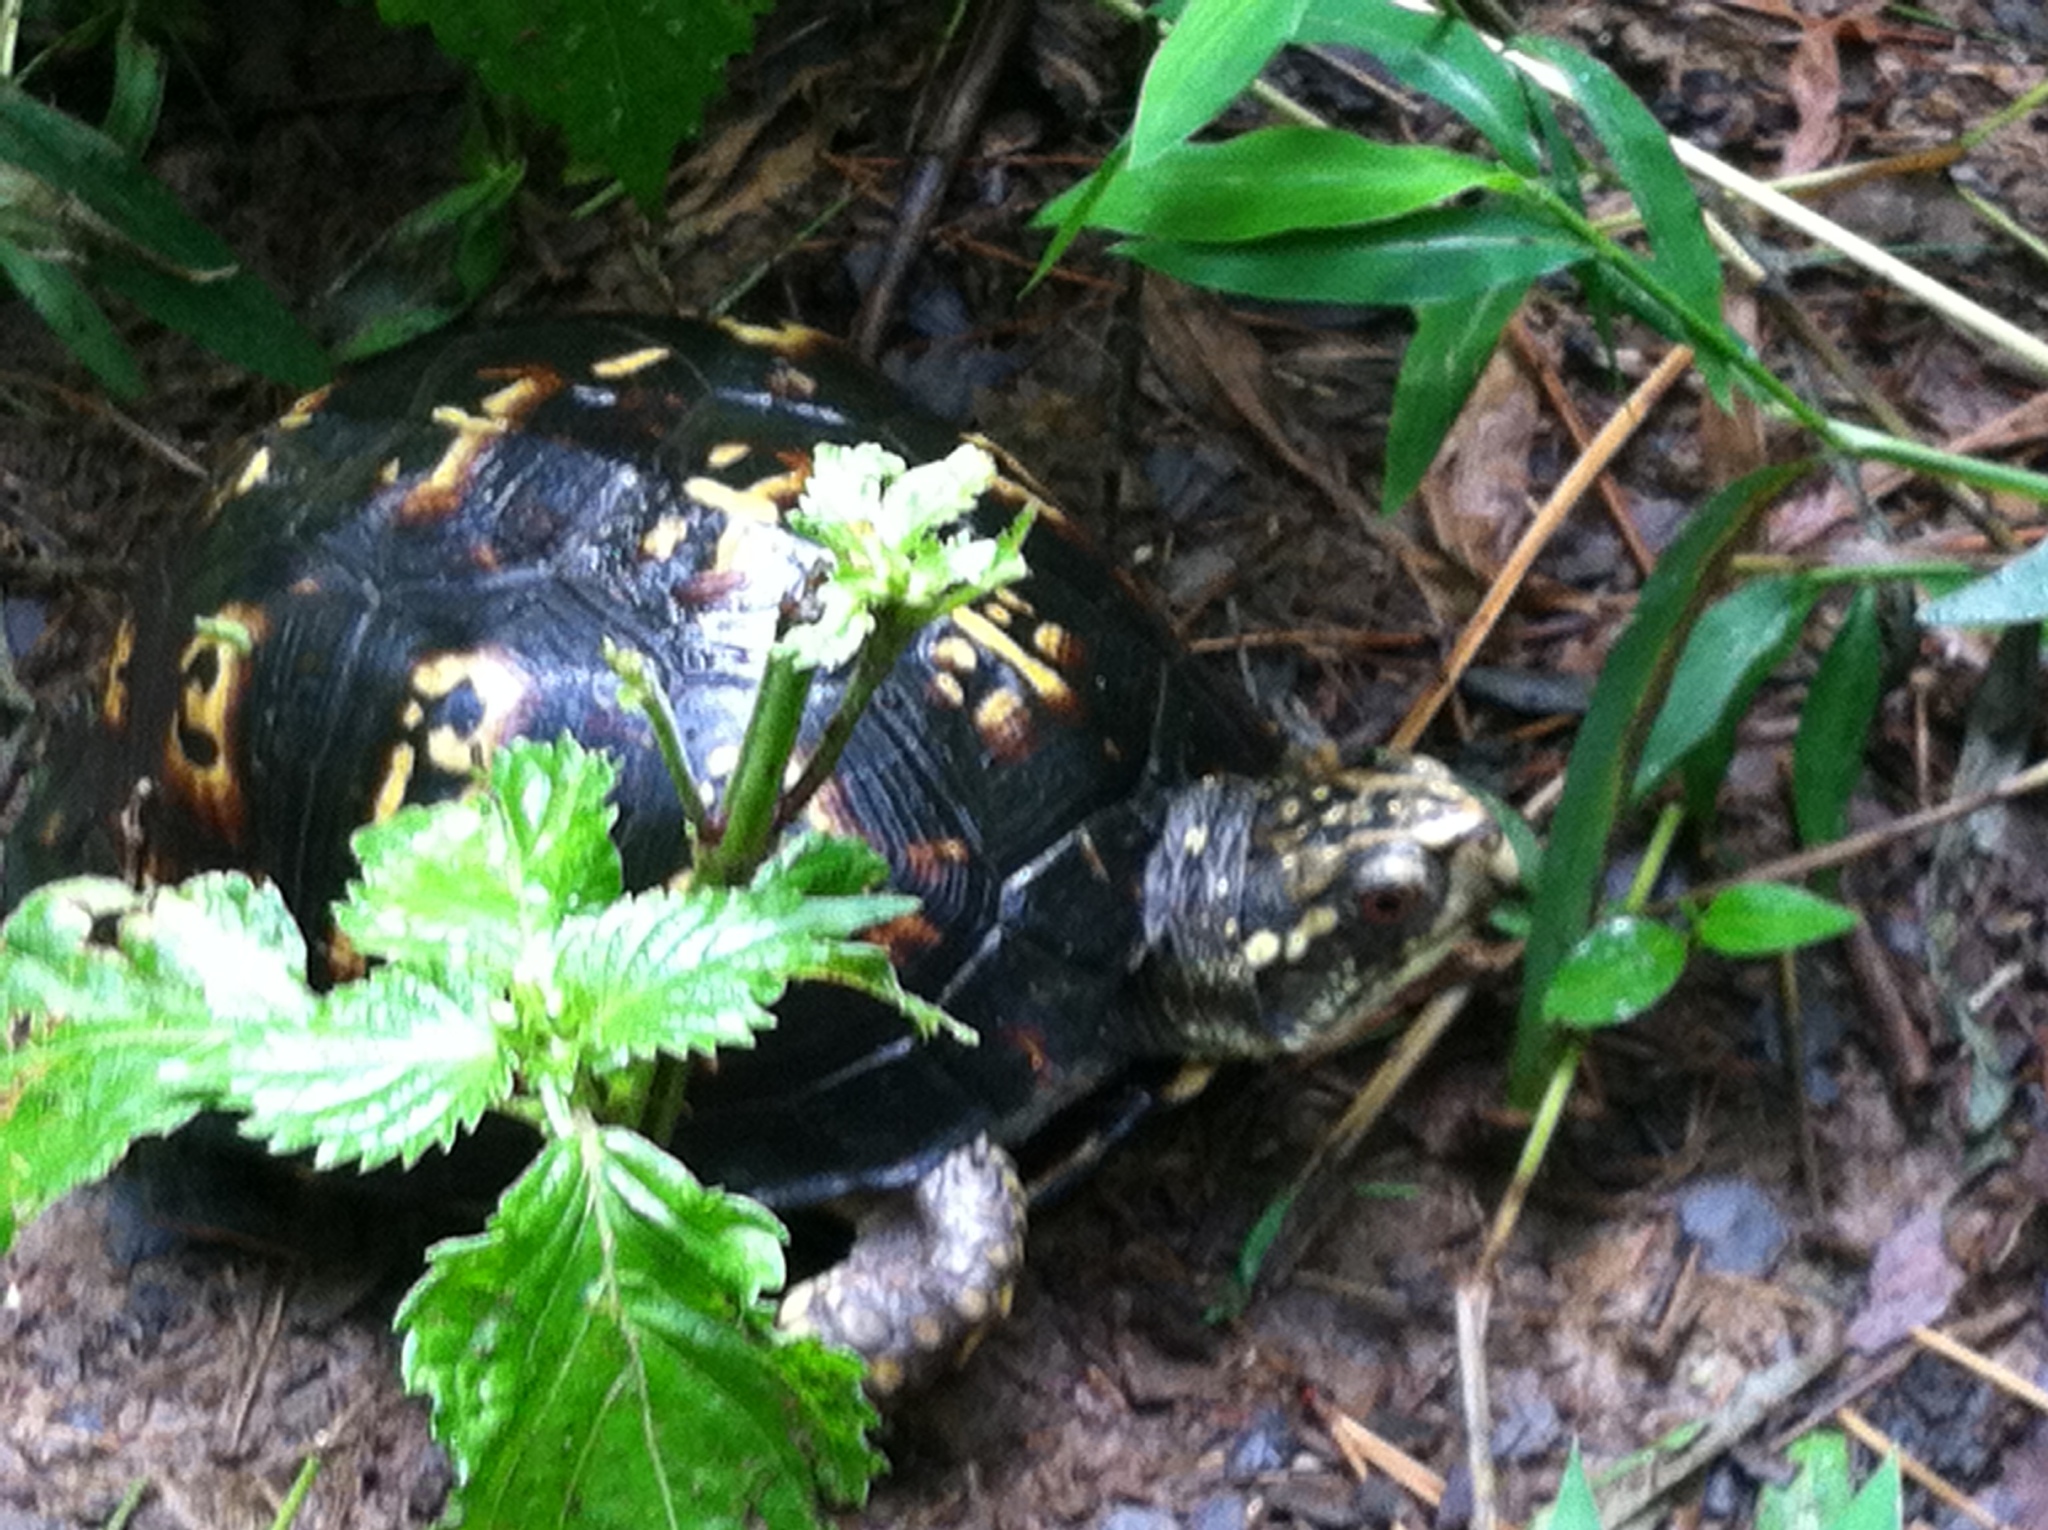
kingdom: Animalia
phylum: Chordata
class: Testudines
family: Emydidae
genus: Terrapene
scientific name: Terrapene carolina
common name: Common box turtle
